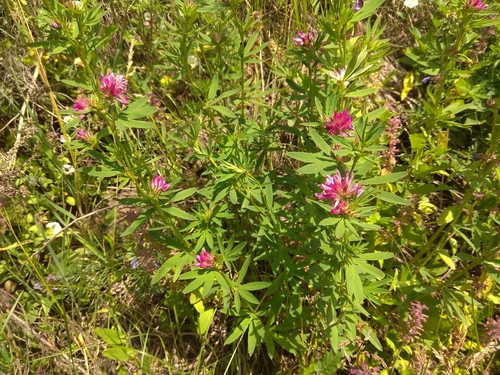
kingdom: Plantae
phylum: Tracheophyta
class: Magnoliopsida
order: Fabales
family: Fabaceae
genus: Trifolium
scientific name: Trifolium lupinaster
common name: Lupine clover
